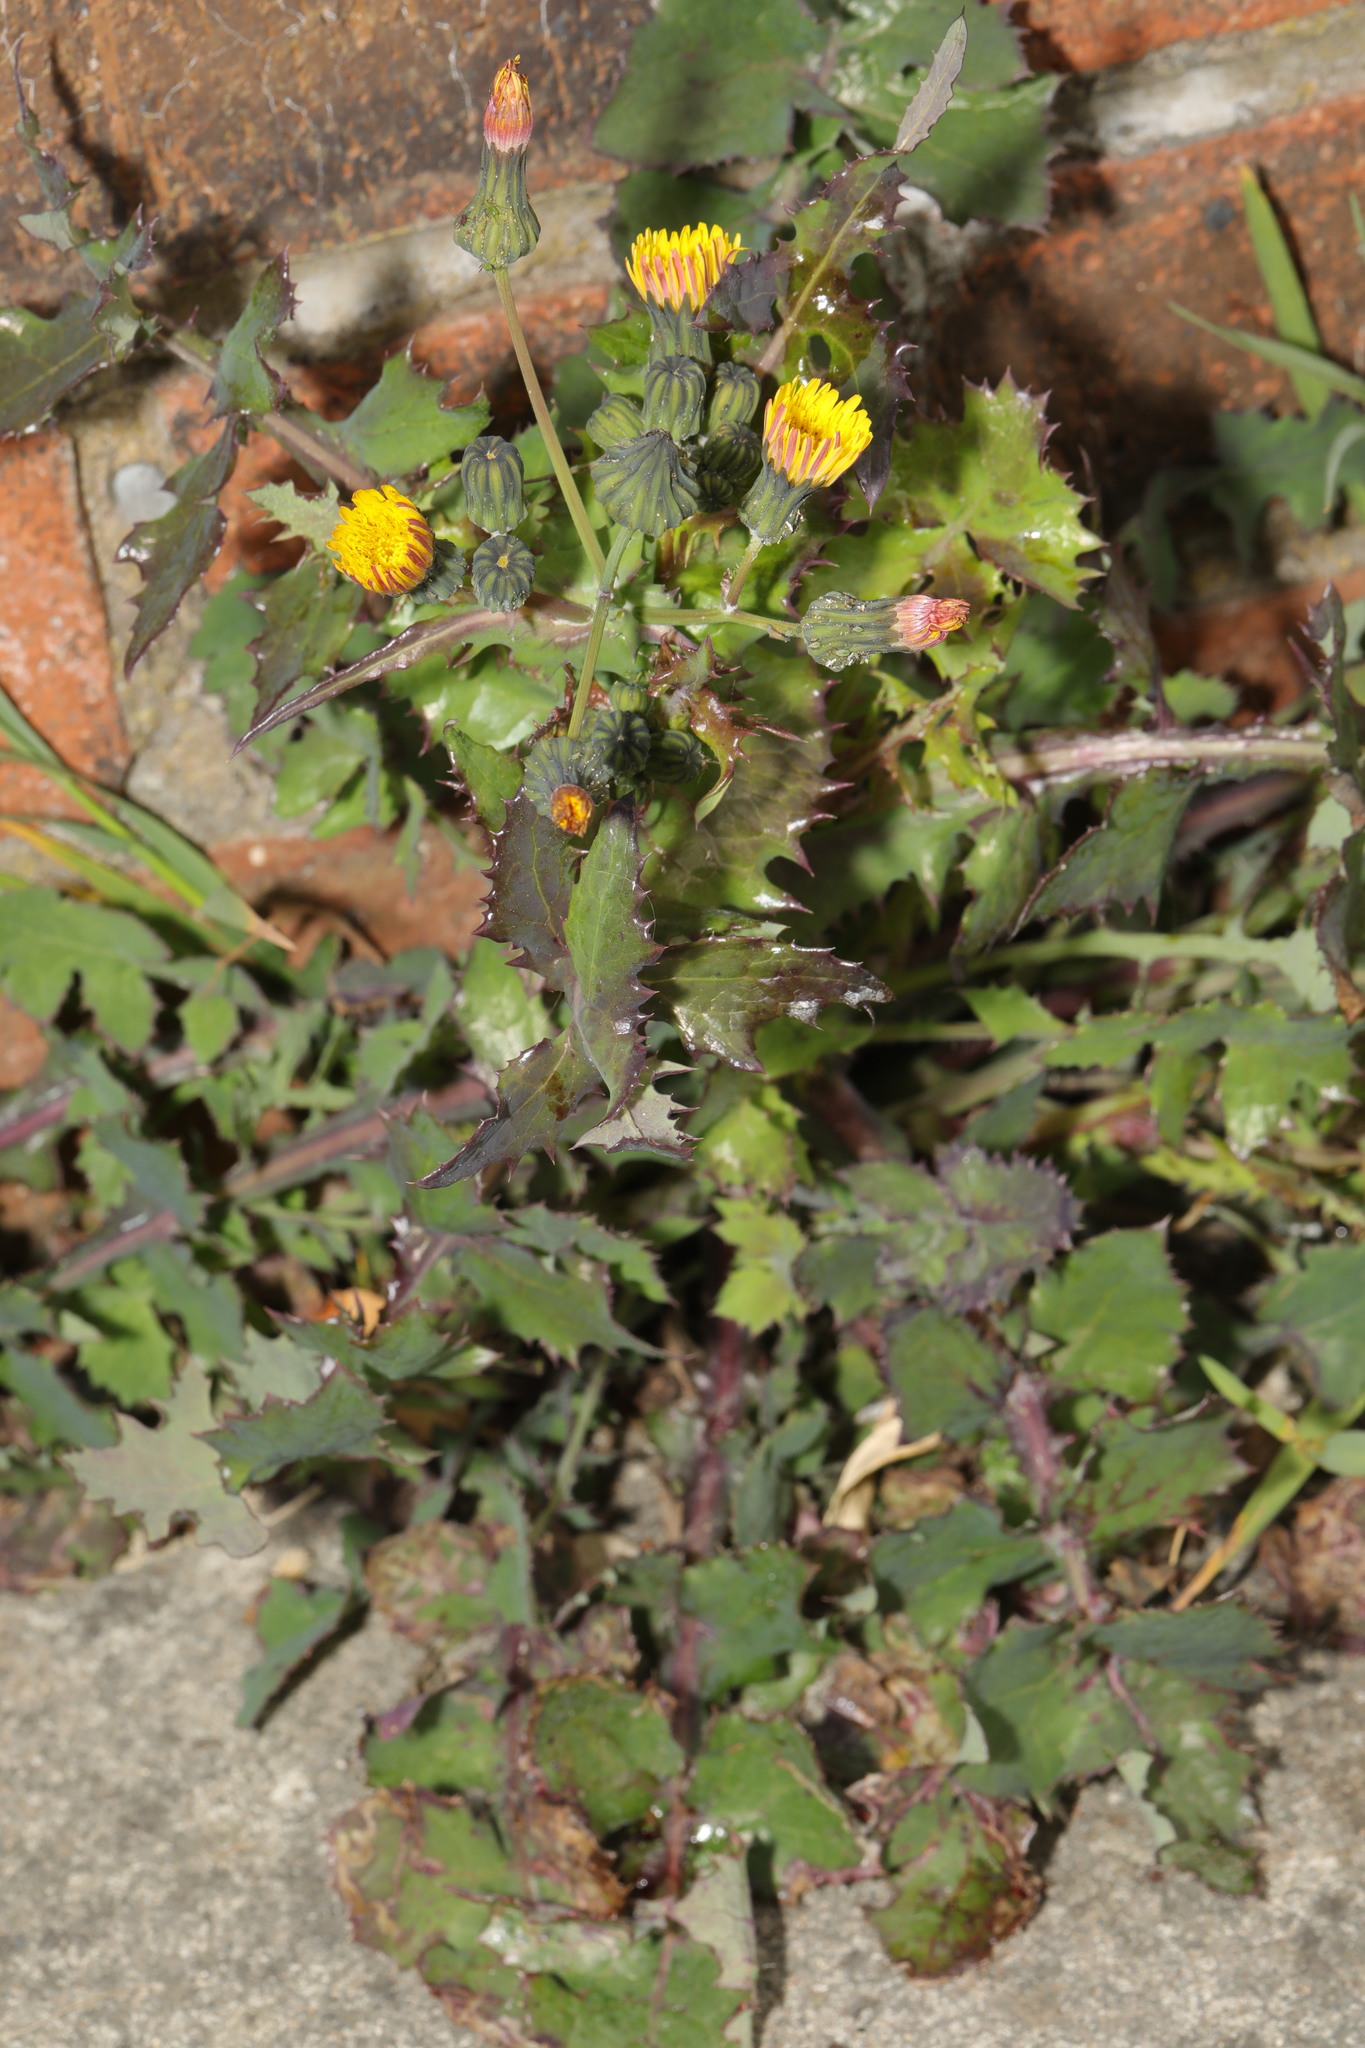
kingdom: Plantae
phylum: Tracheophyta
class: Magnoliopsida
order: Asterales
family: Asteraceae
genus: Sonchus
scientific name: Sonchus oleraceus
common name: Common sowthistle
